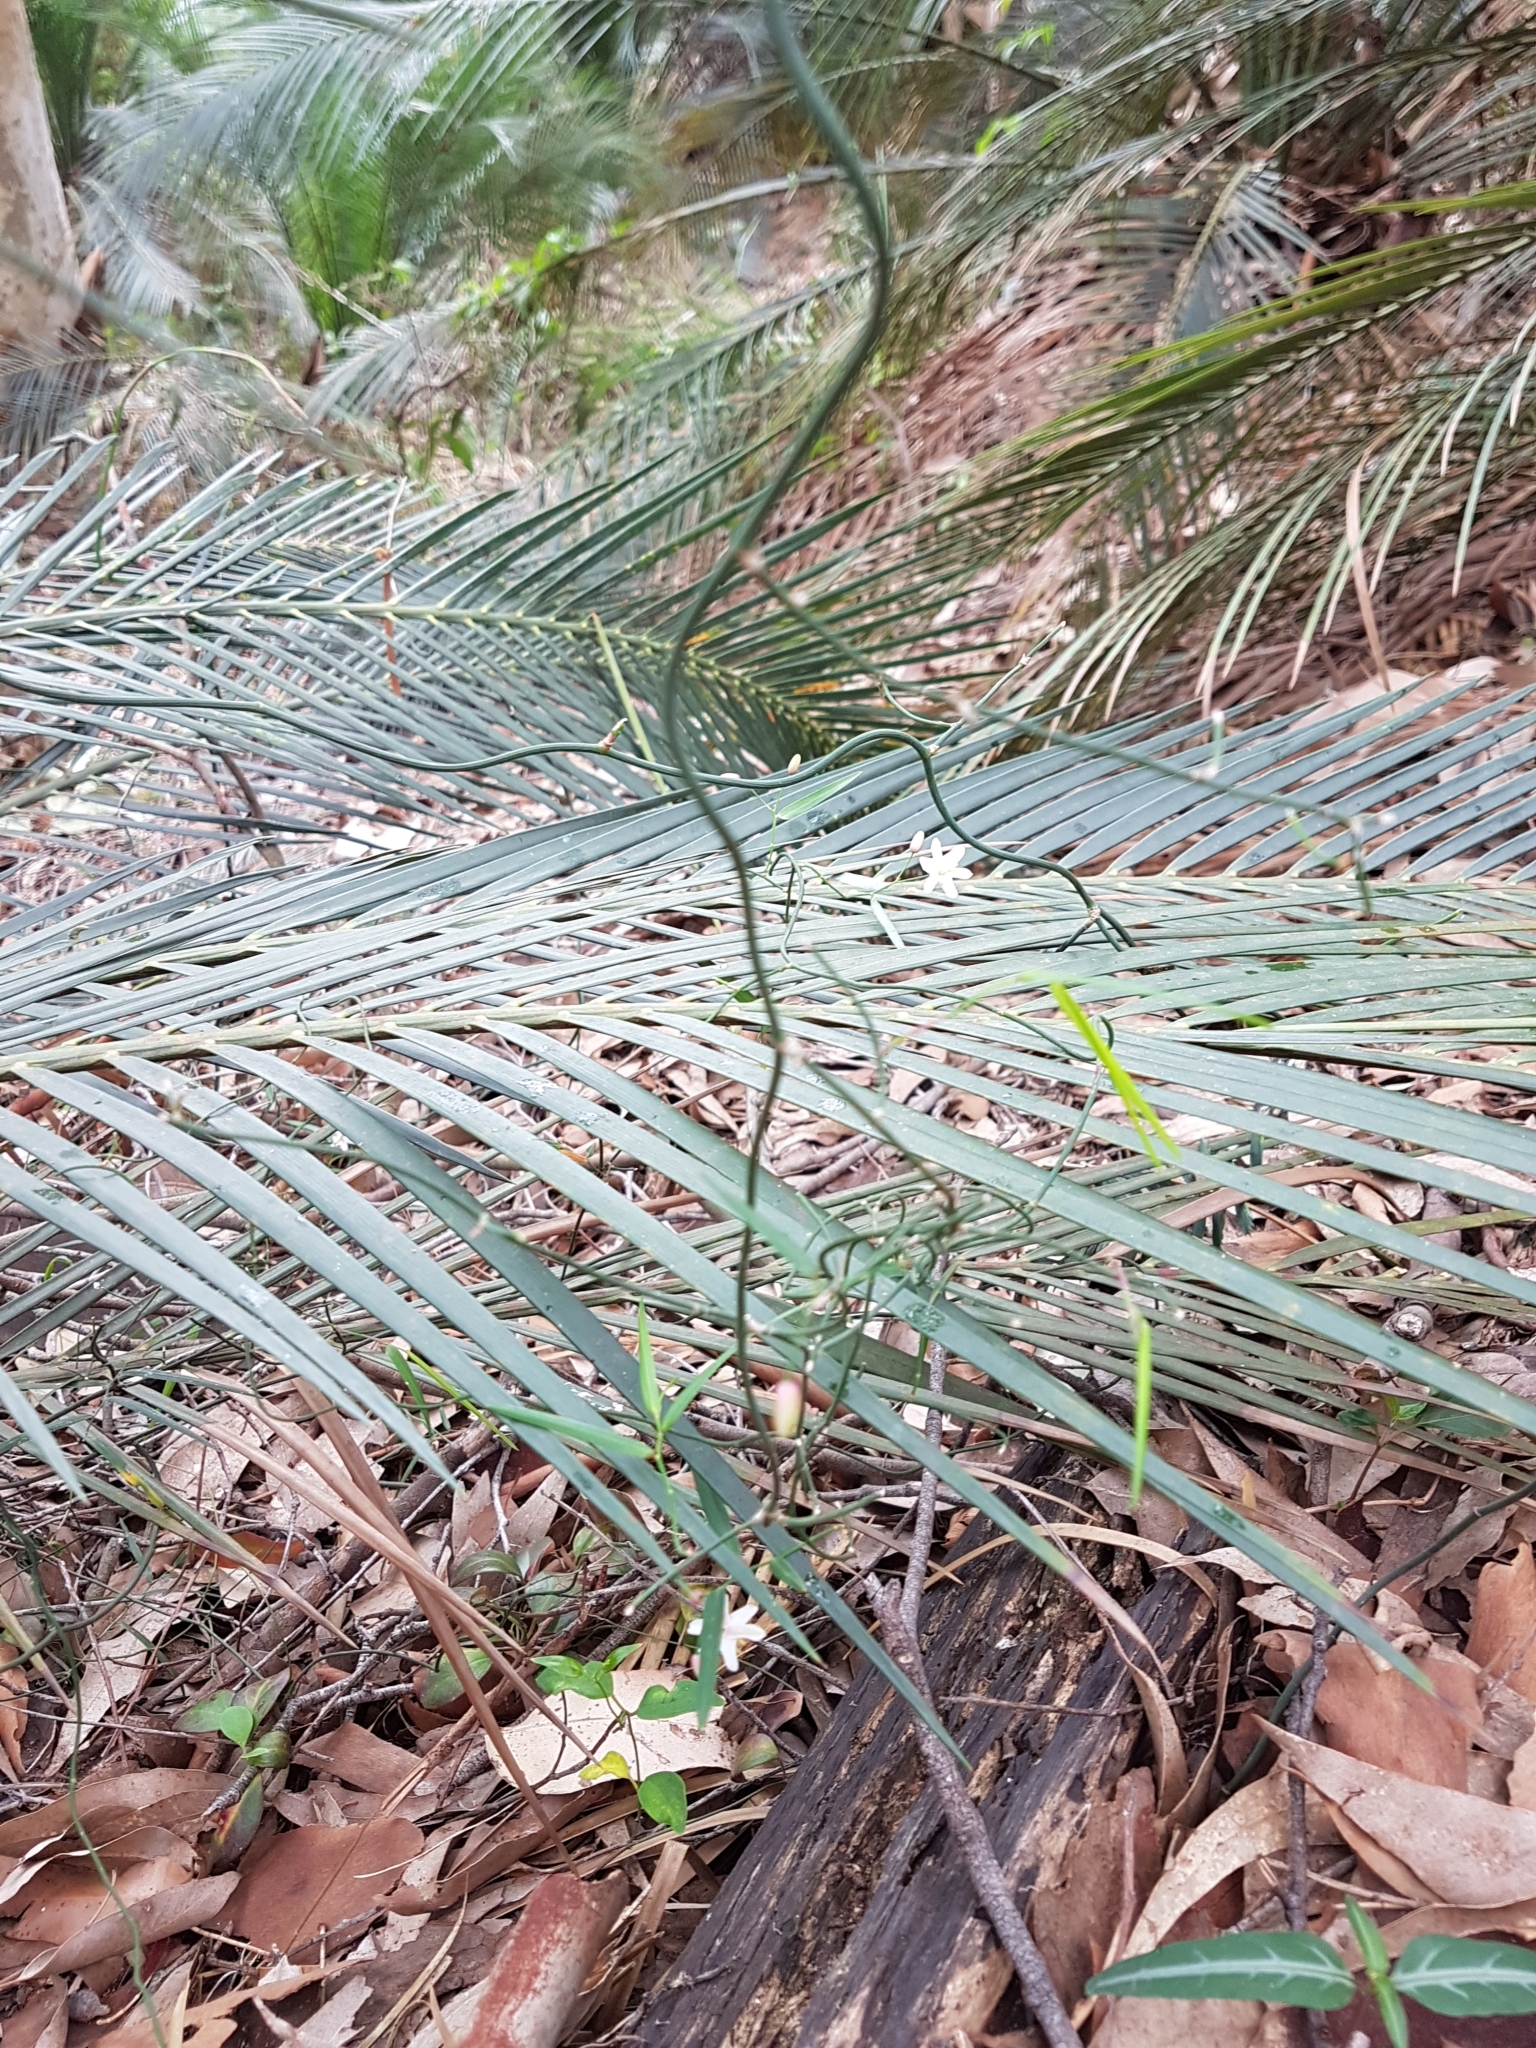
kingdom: Plantae
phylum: Tracheophyta
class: Liliopsida
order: Asparagales
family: Asphodelaceae
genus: Geitonoplesium
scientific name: Geitonoplesium cymosum
